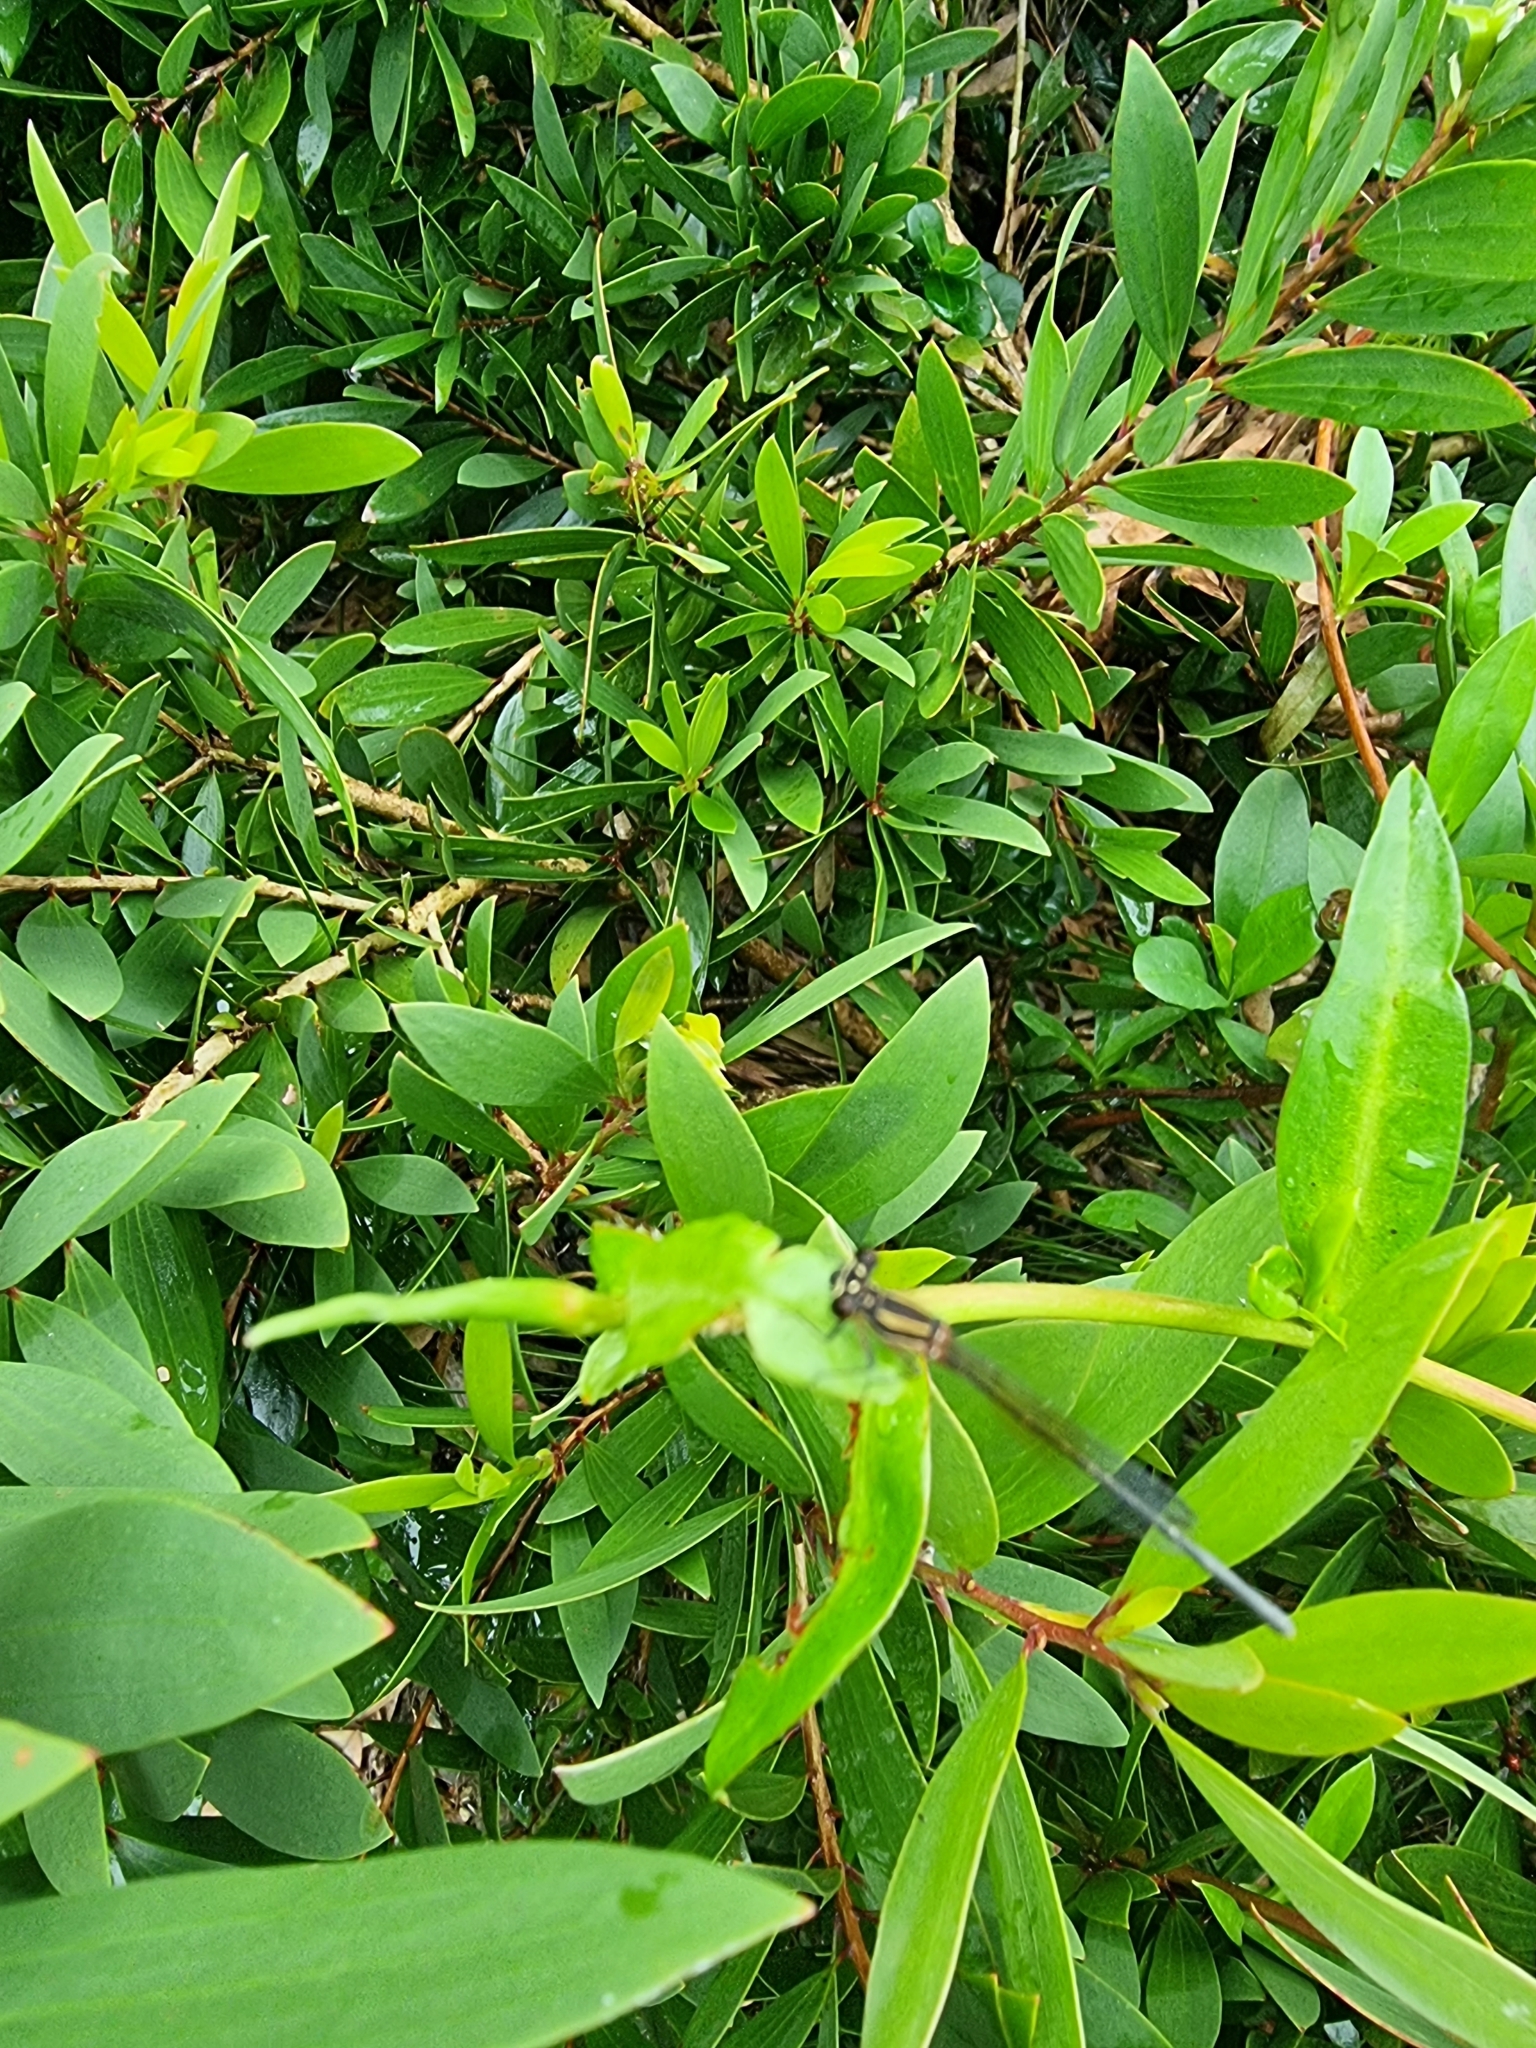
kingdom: Animalia
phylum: Arthropoda
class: Insecta
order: Odonata
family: Platycnemididae
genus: Nososticta
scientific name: Nososticta solida
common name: Orange threadtail
